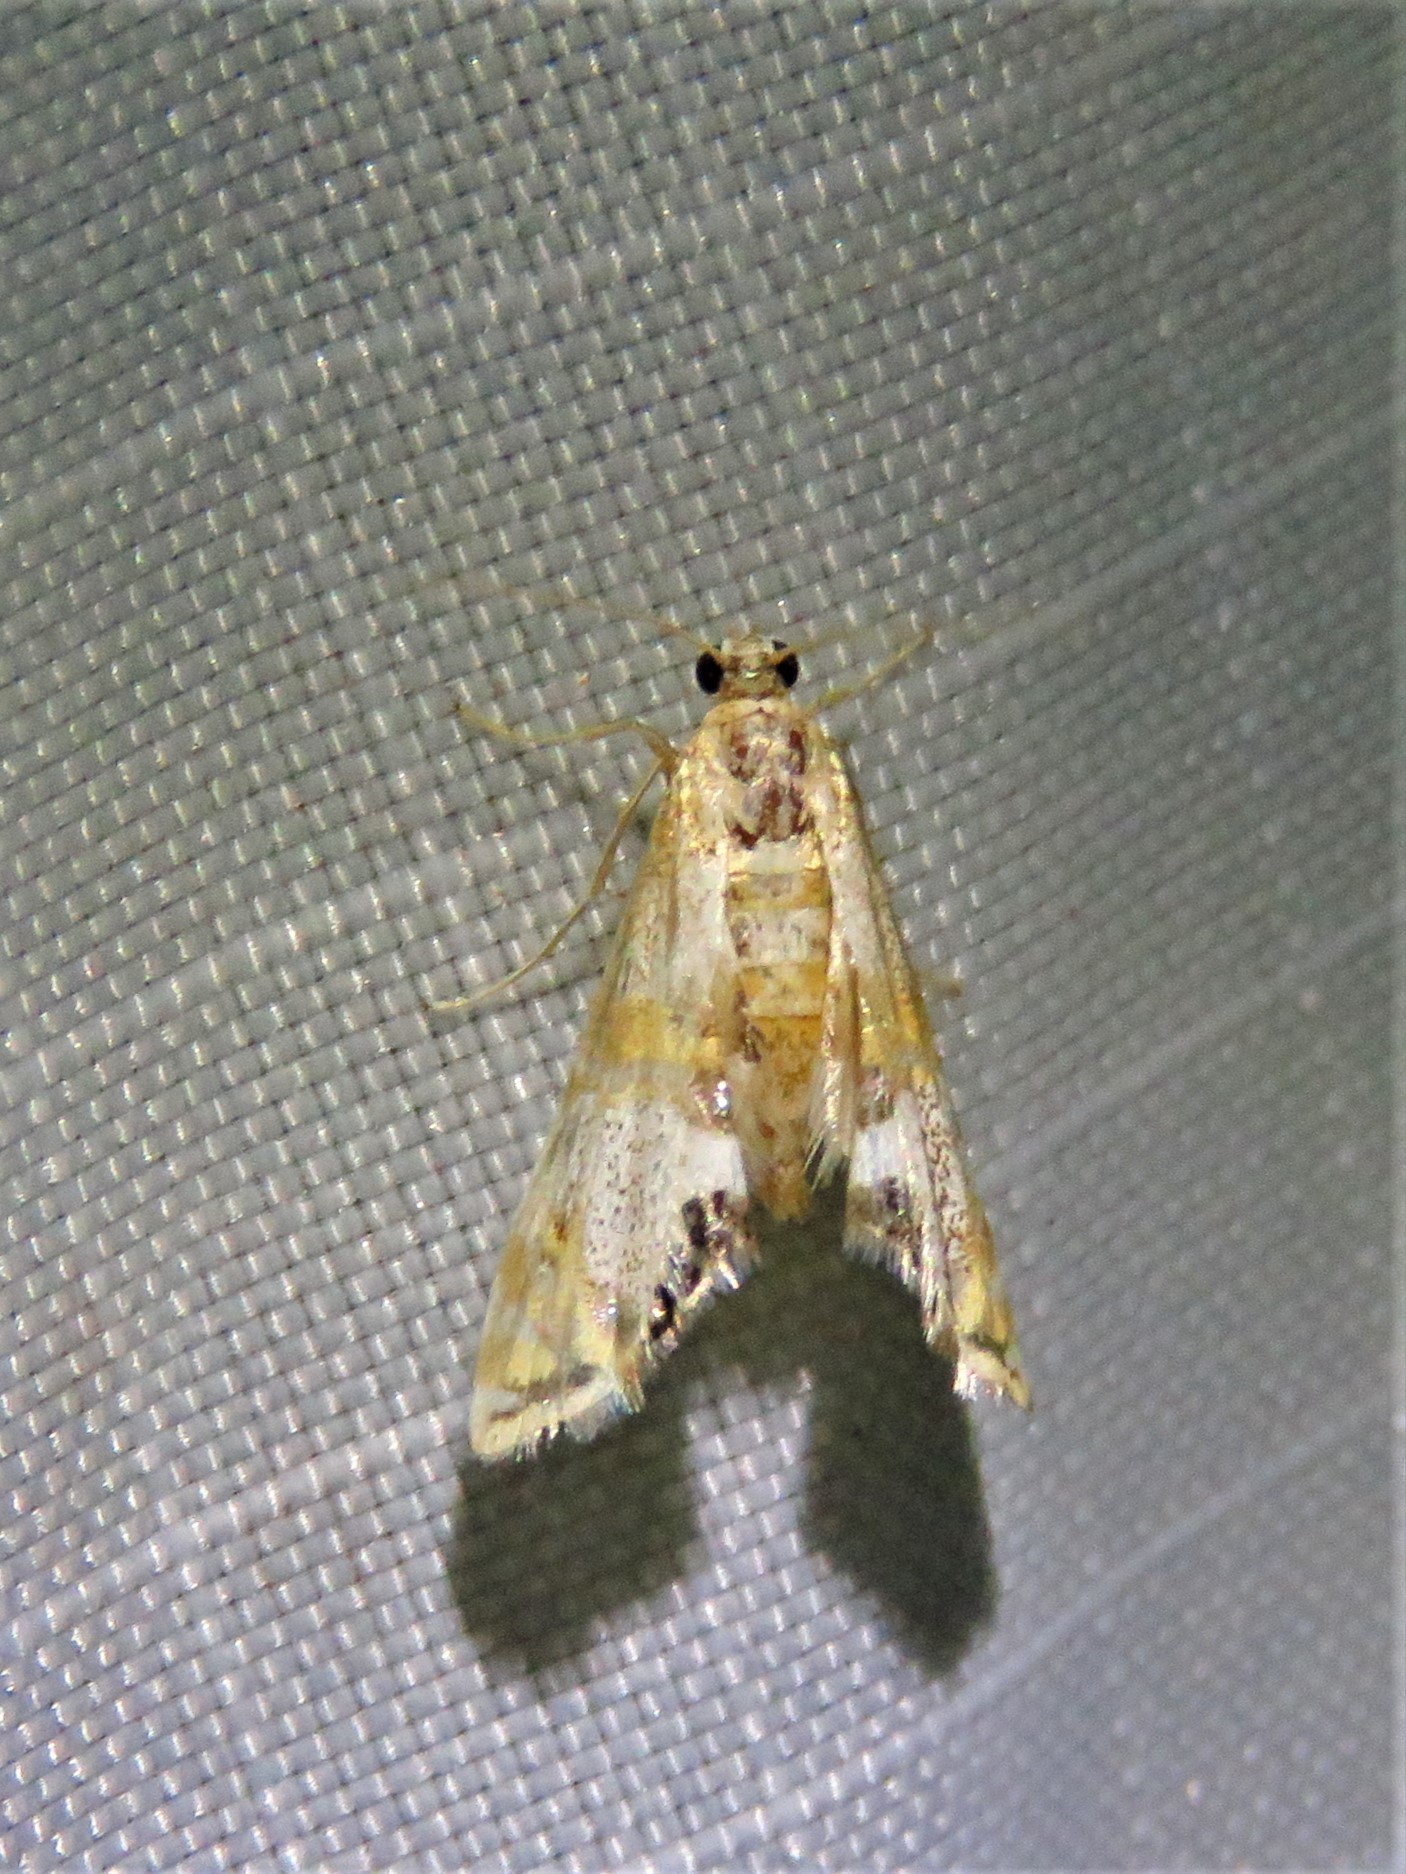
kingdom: Animalia
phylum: Arthropoda
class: Insecta
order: Lepidoptera
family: Crambidae
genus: Petrophila
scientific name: Petrophila bifascialis
